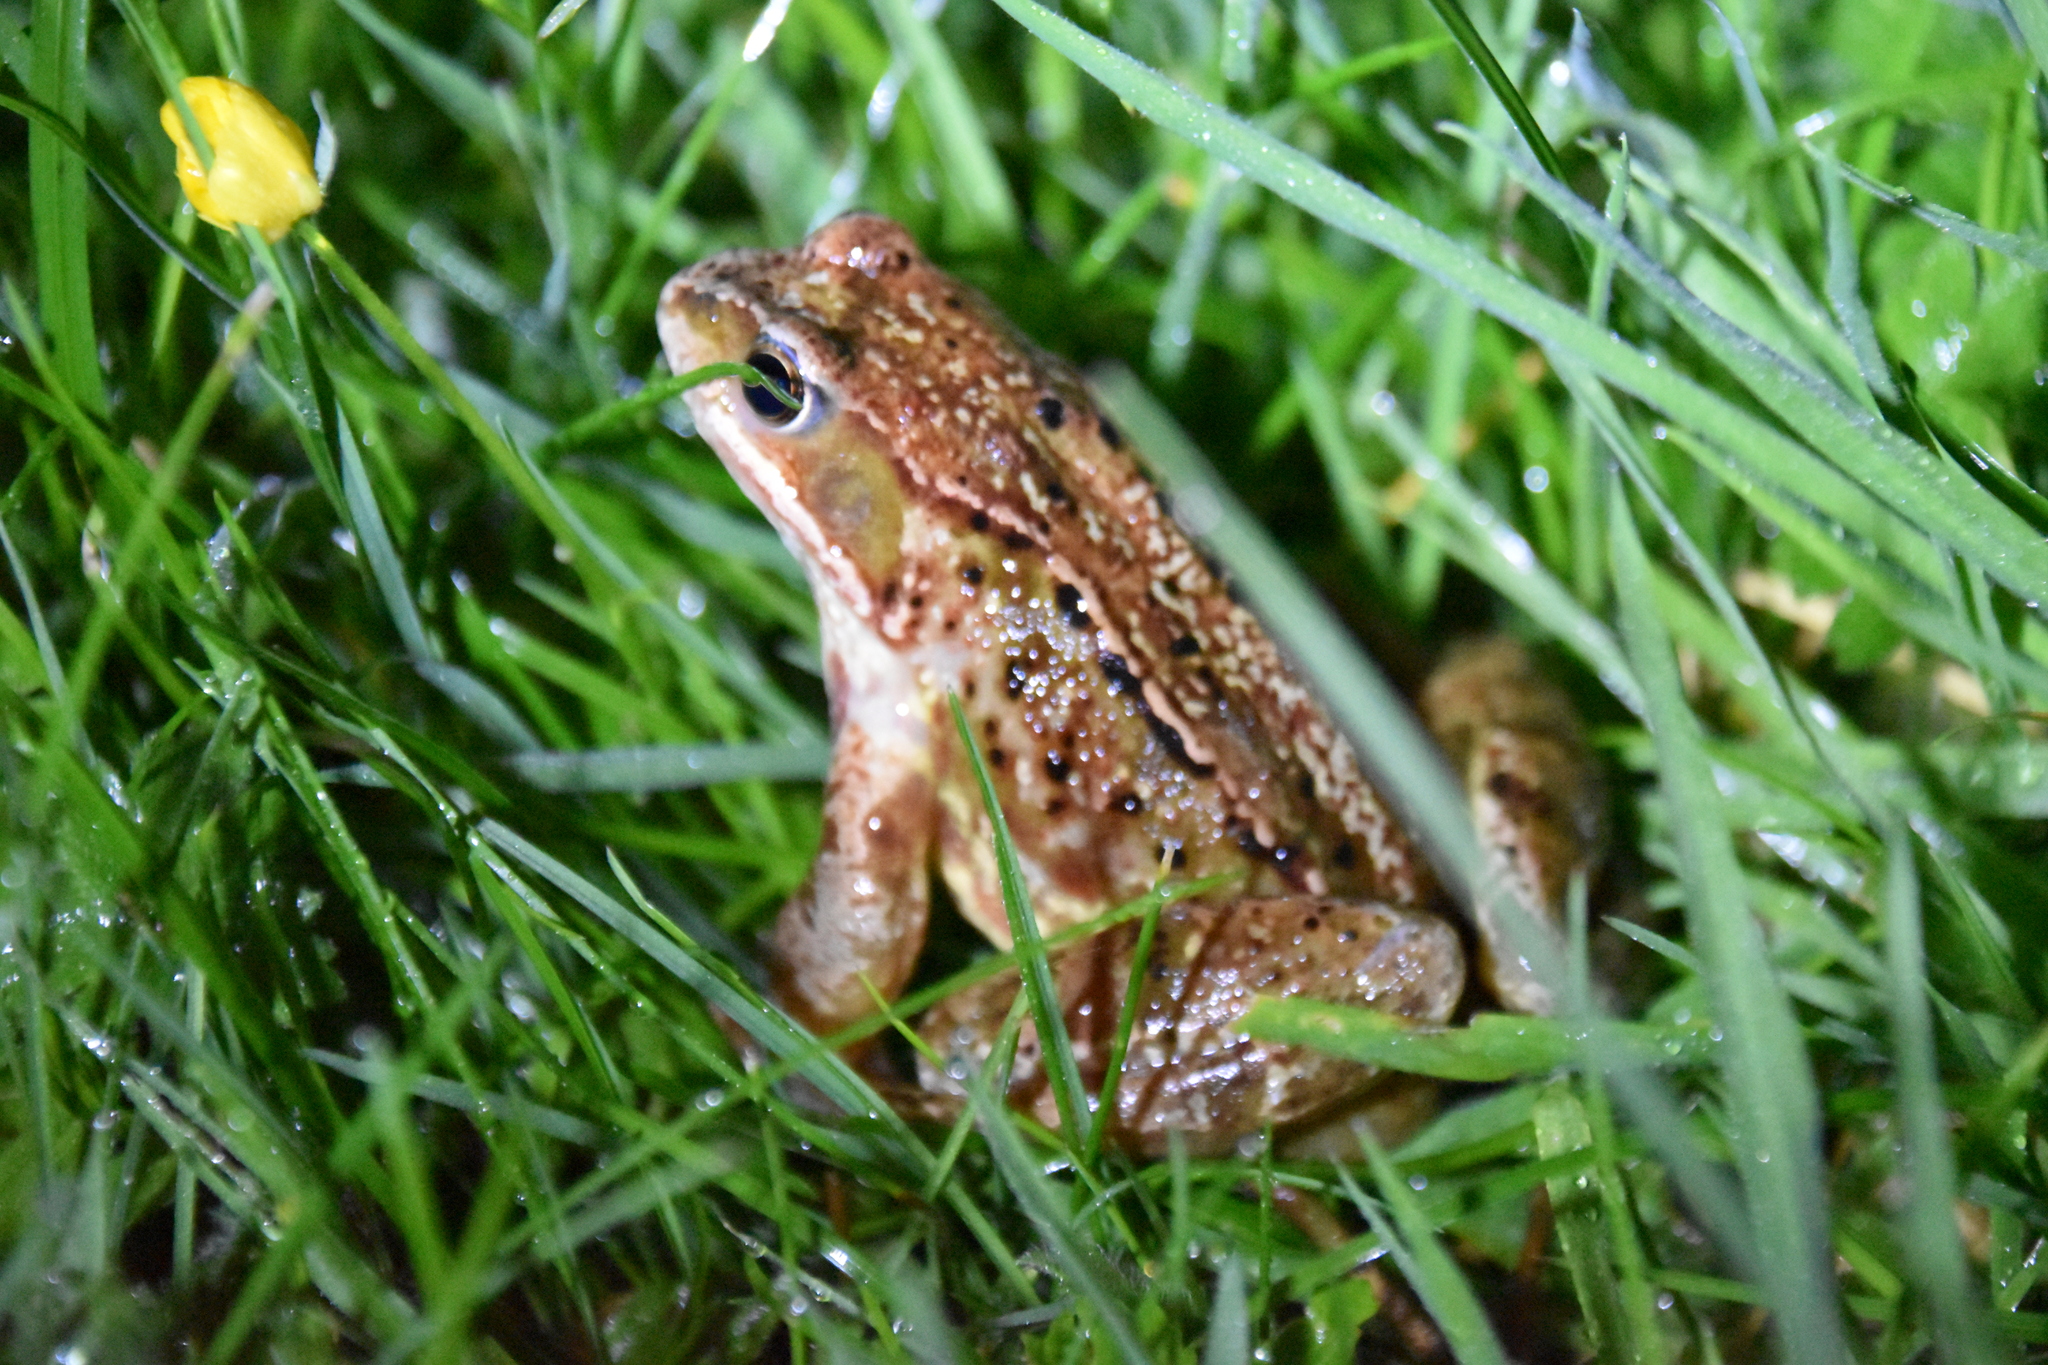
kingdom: Animalia
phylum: Chordata
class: Amphibia
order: Anura
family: Ranidae
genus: Rana
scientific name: Rana temporaria
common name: Common frog
